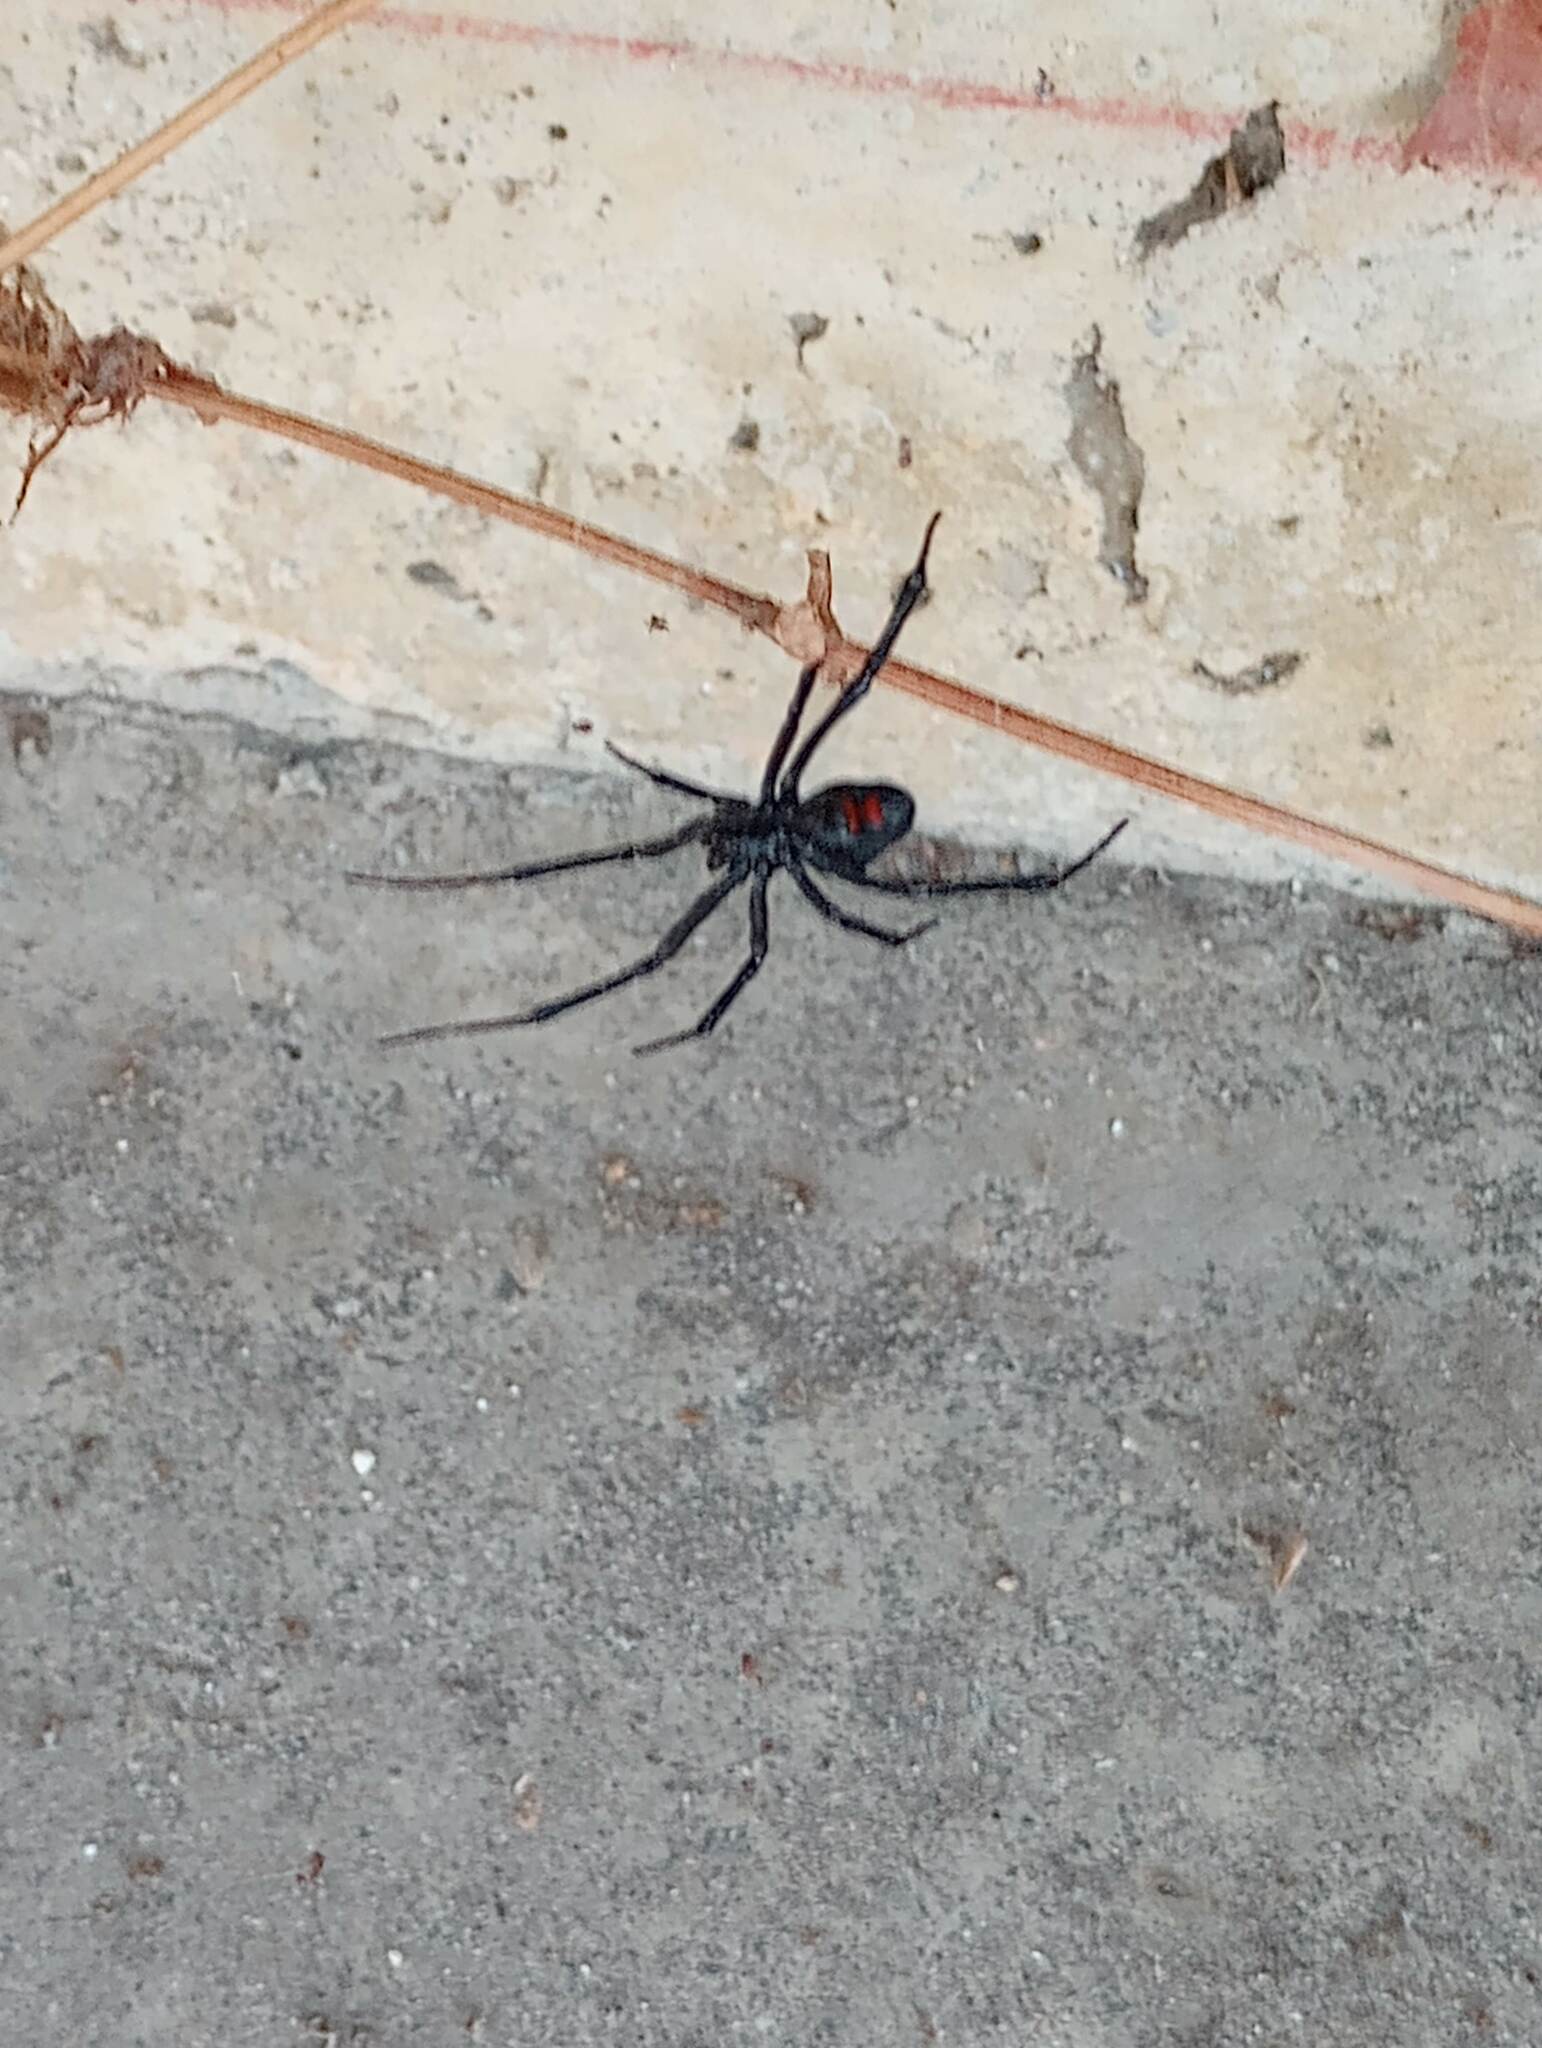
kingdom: Animalia
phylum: Arthropoda
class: Arachnida
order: Araneae
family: Theridiidae
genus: Latrodectus
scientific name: Latrodectus hesperus
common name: Western black widow
